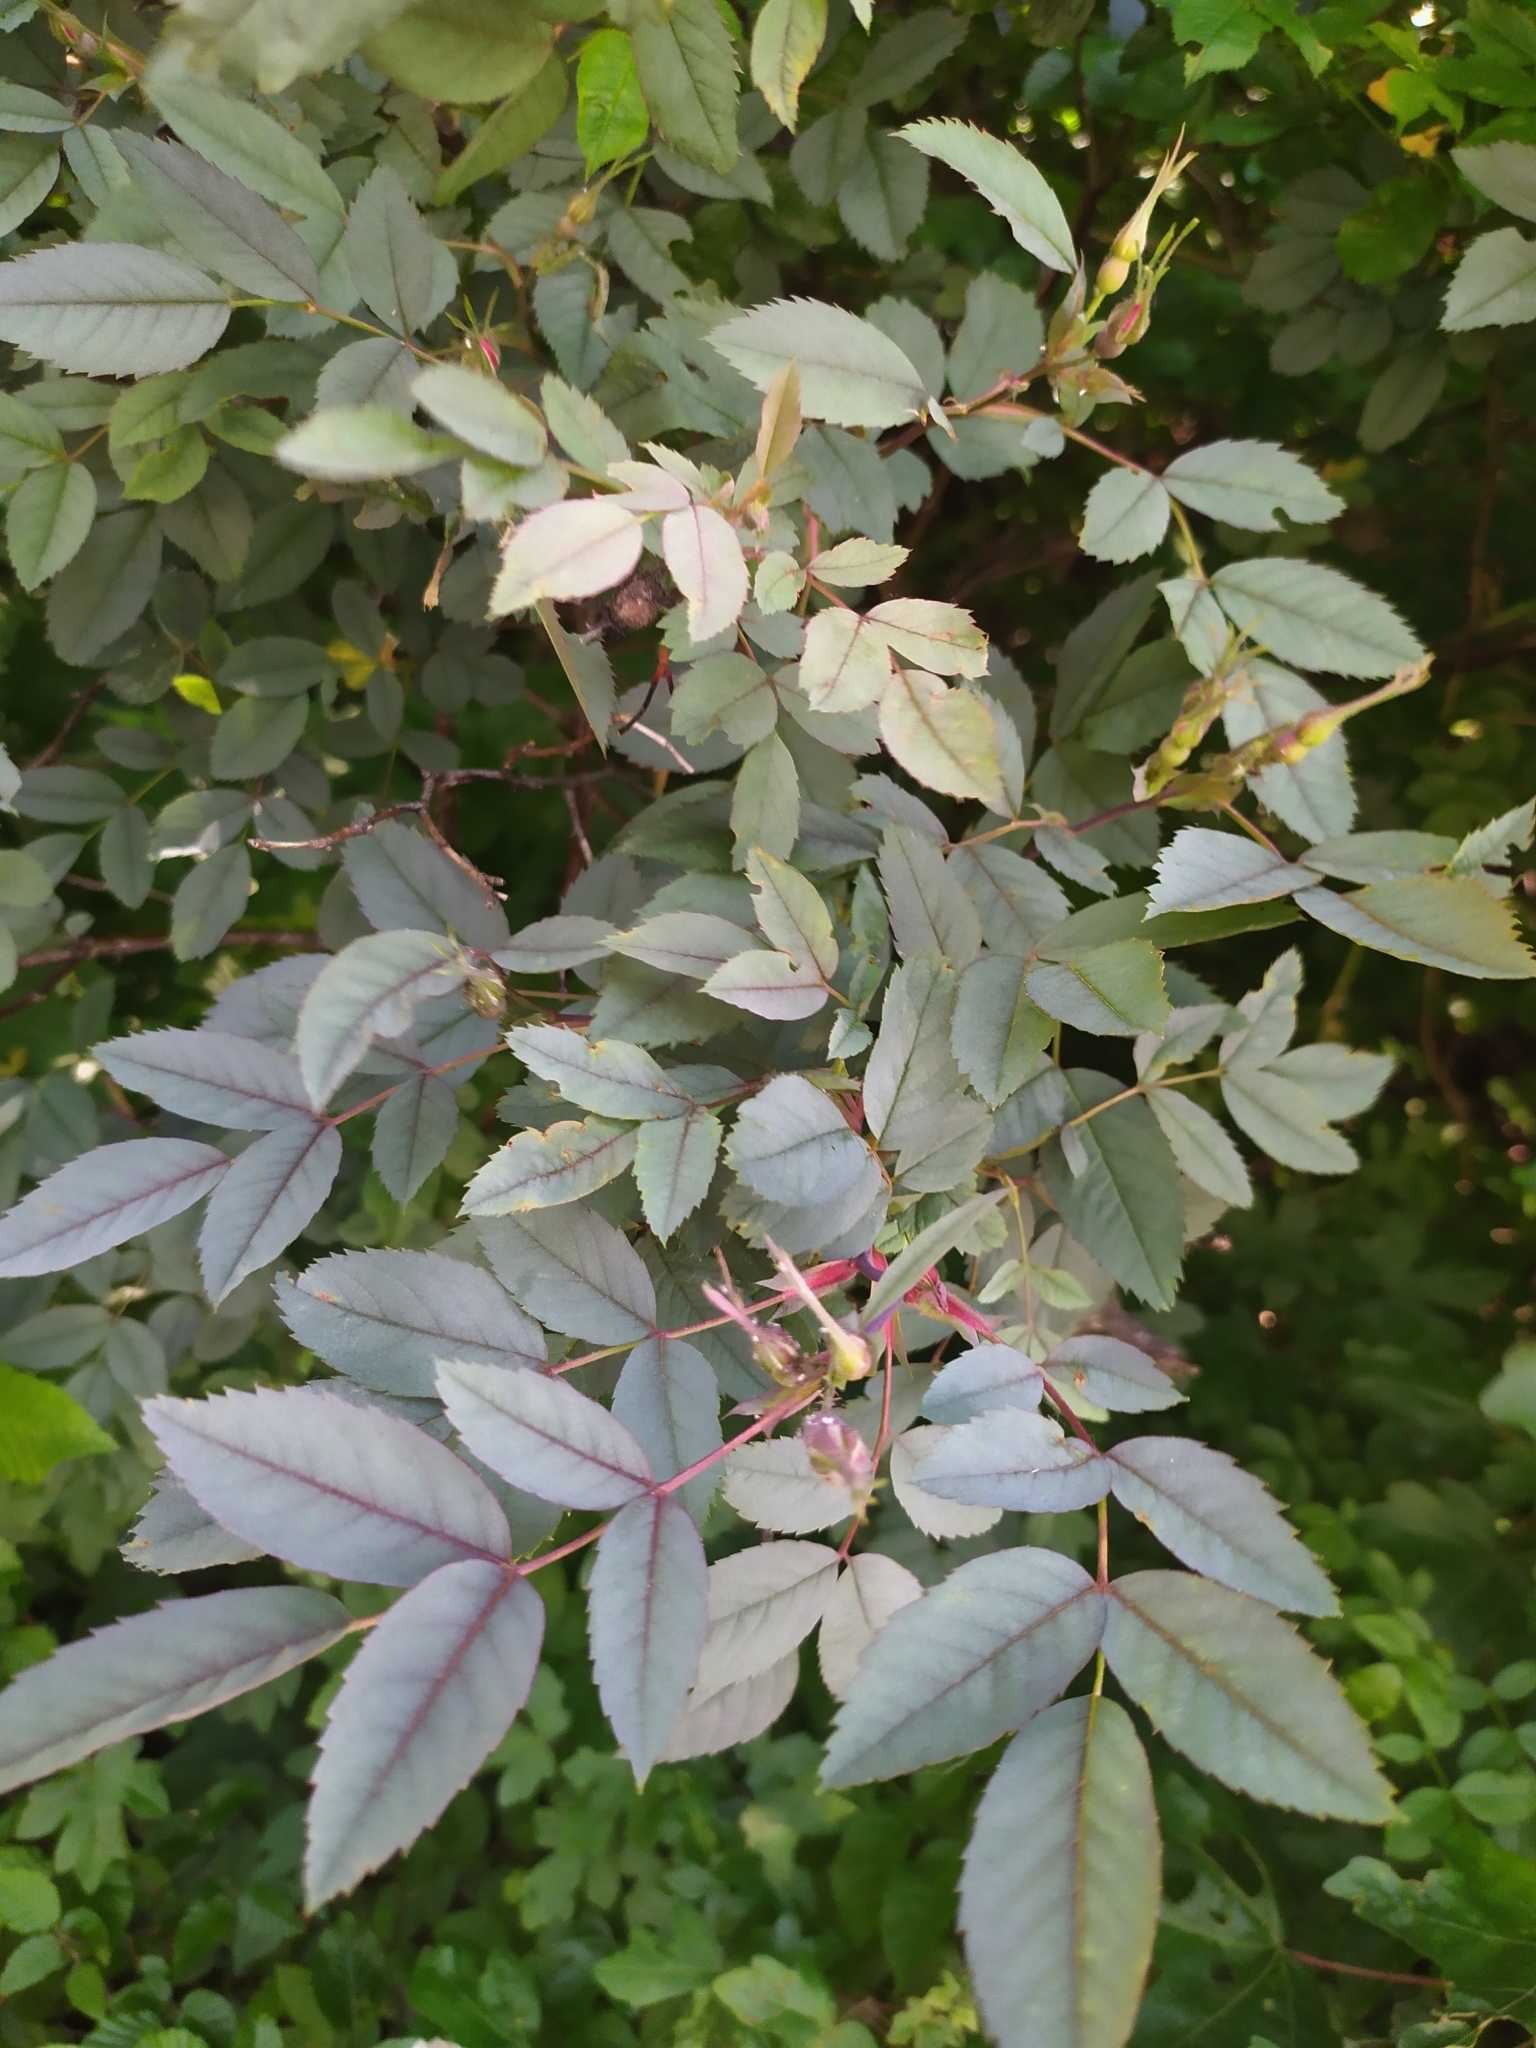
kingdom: Plantae
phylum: Tracheophyta
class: Magnoliopsida
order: Rosales
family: Rosaceae
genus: Rosa
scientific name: Rosa glauca
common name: Redleaf rose
